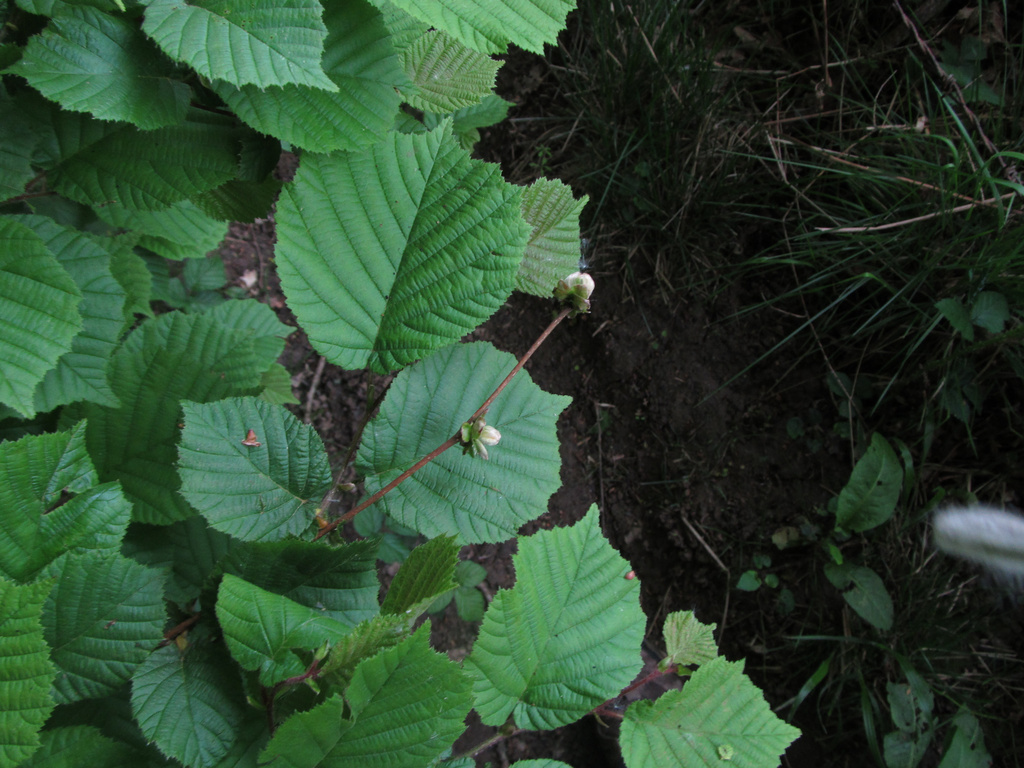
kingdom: Animalia
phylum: Arthropoda
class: Arachnida
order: Trombidiformes
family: Phytoptidae
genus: Phytoptus
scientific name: Phytoptus avellanae
